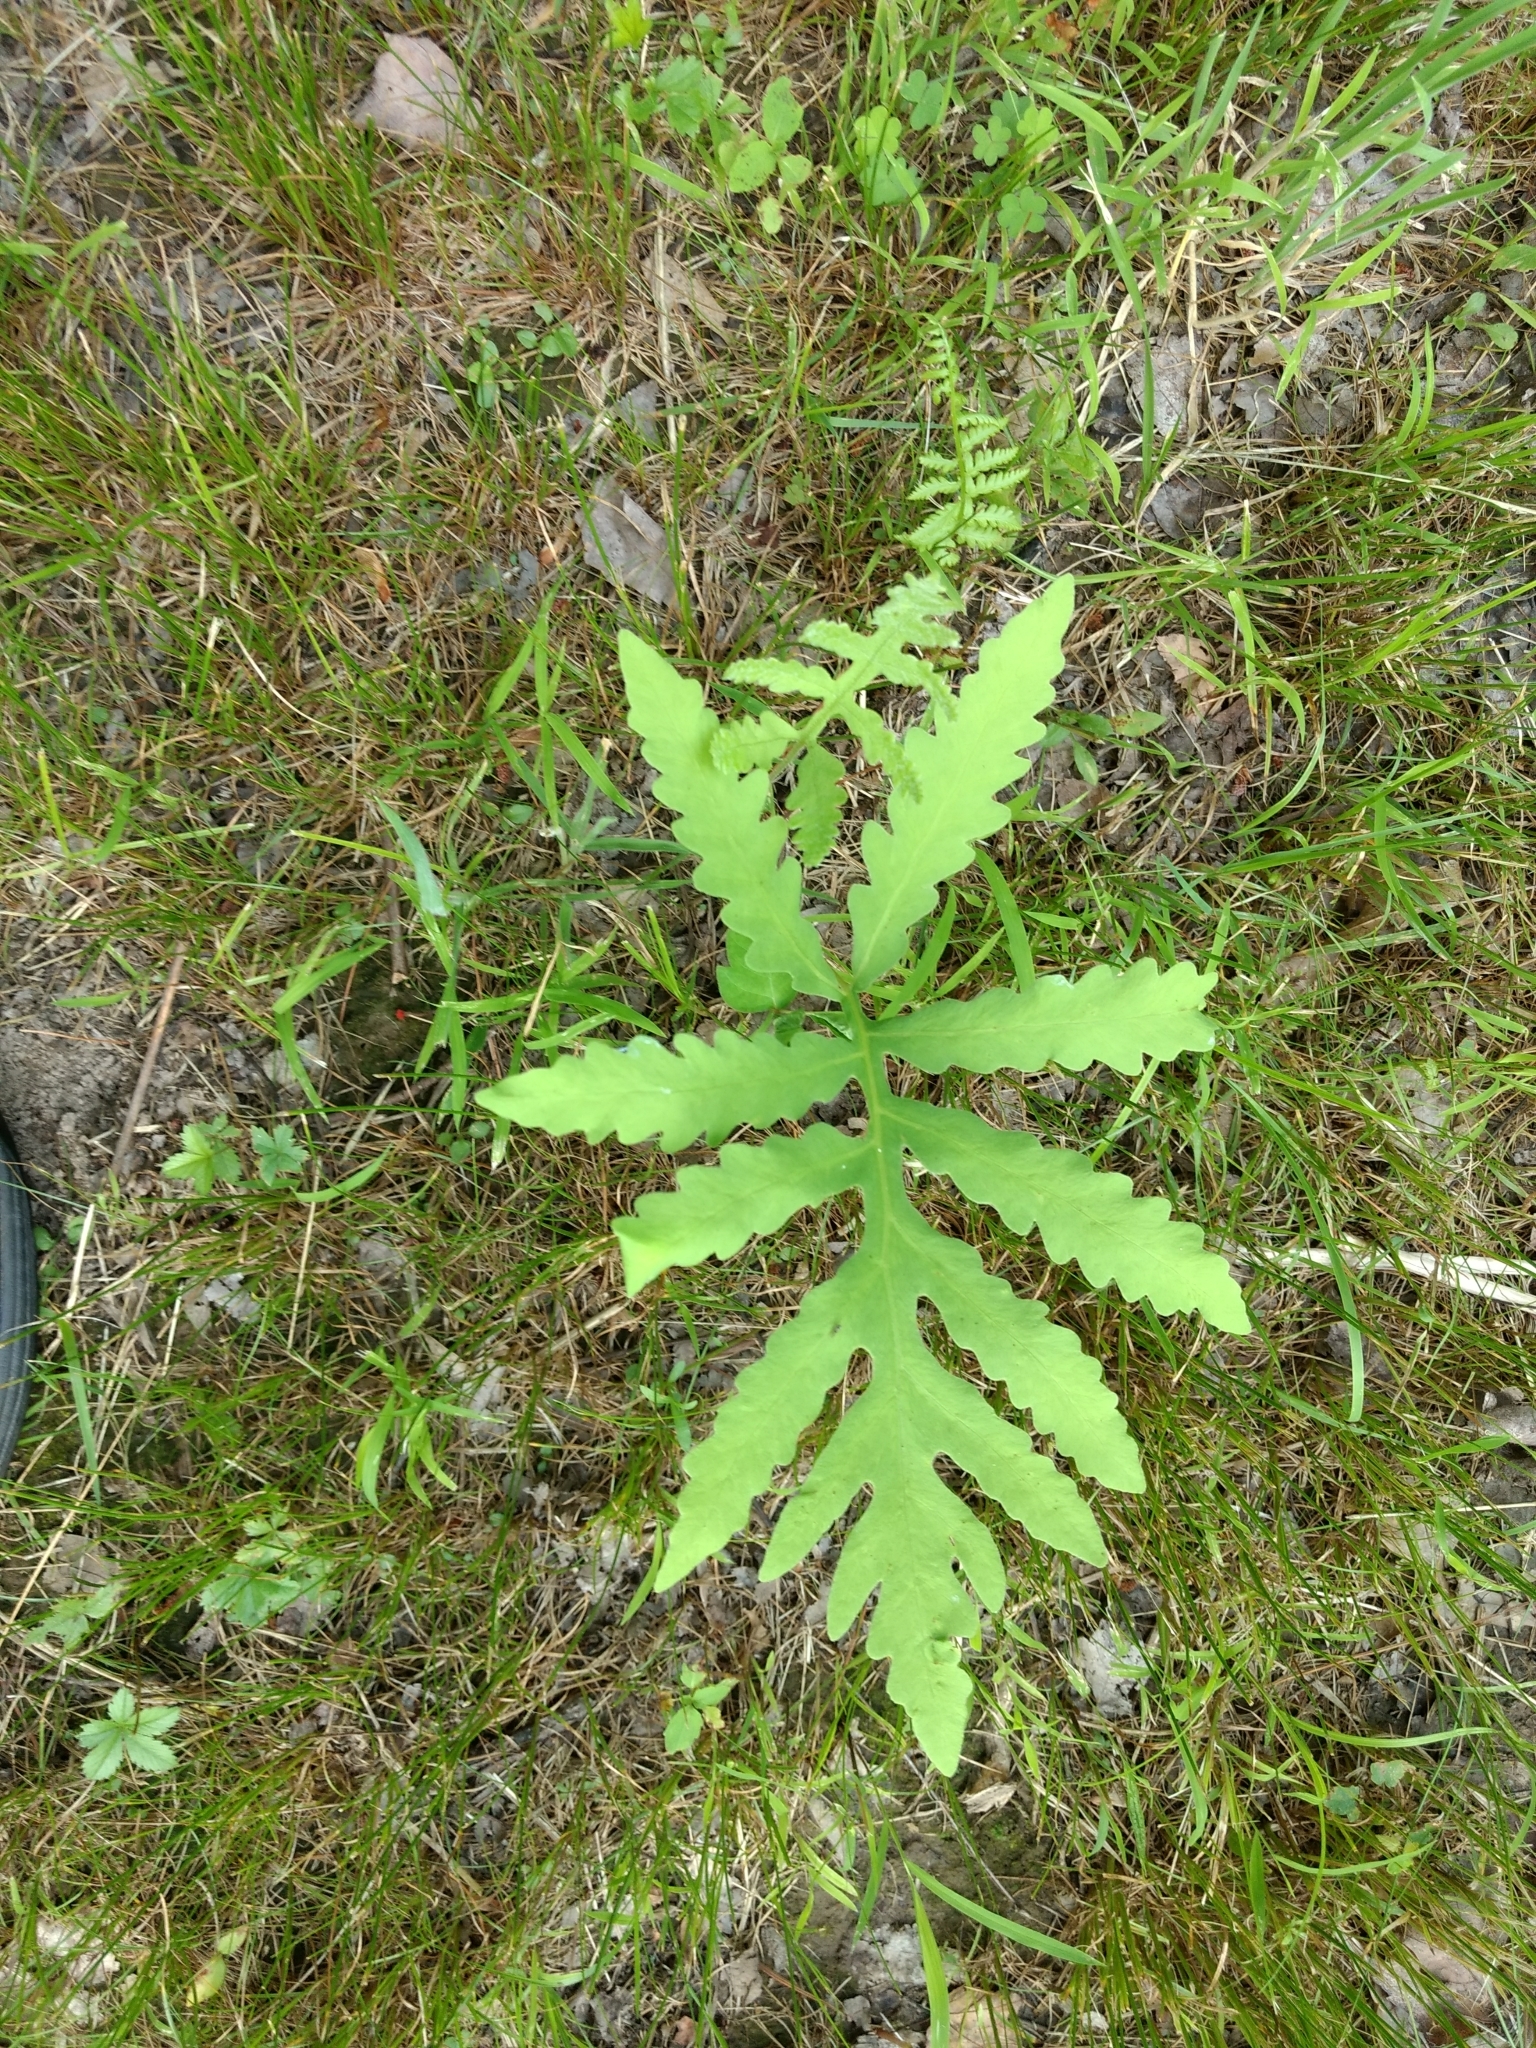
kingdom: Plantae
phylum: Tracheophyta
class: Polypodiopsida
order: Polypodiales
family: Onocleaceae
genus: Onoclea
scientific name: Onoclea sensibilis
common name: Sensitive fern
